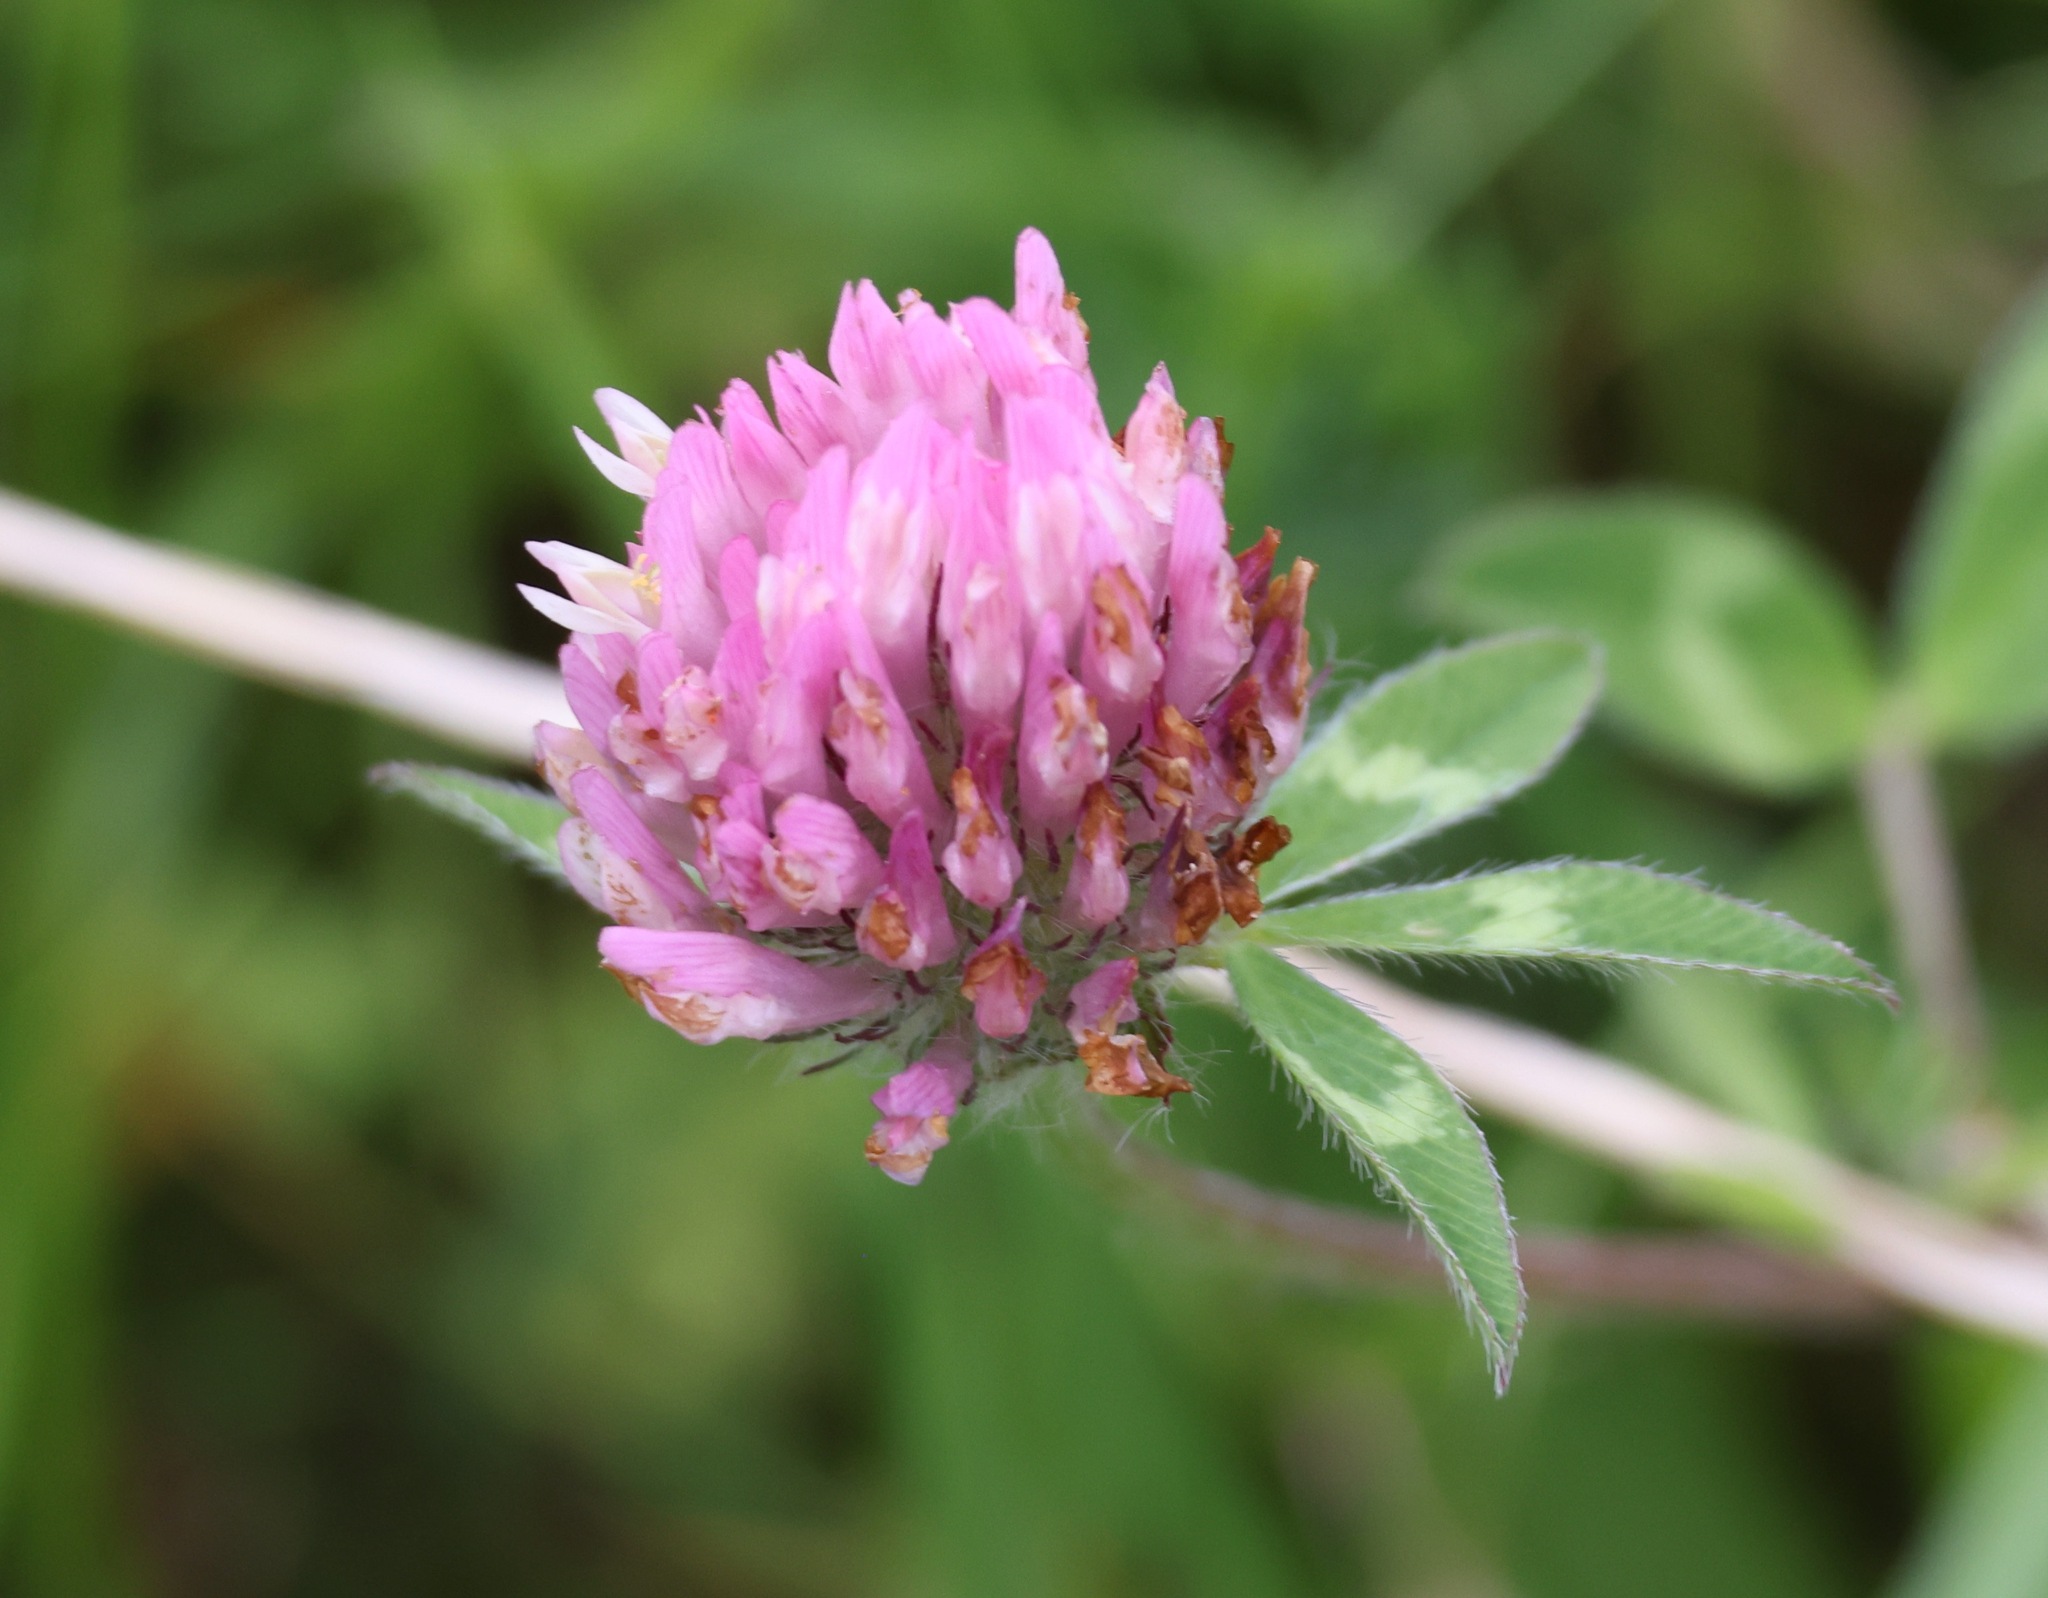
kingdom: Plantae
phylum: Tracheophyta
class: Magnoliopsida
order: Fabales
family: Fabaceae
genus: Trifolium
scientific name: Trifolium pratense
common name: Red clover
